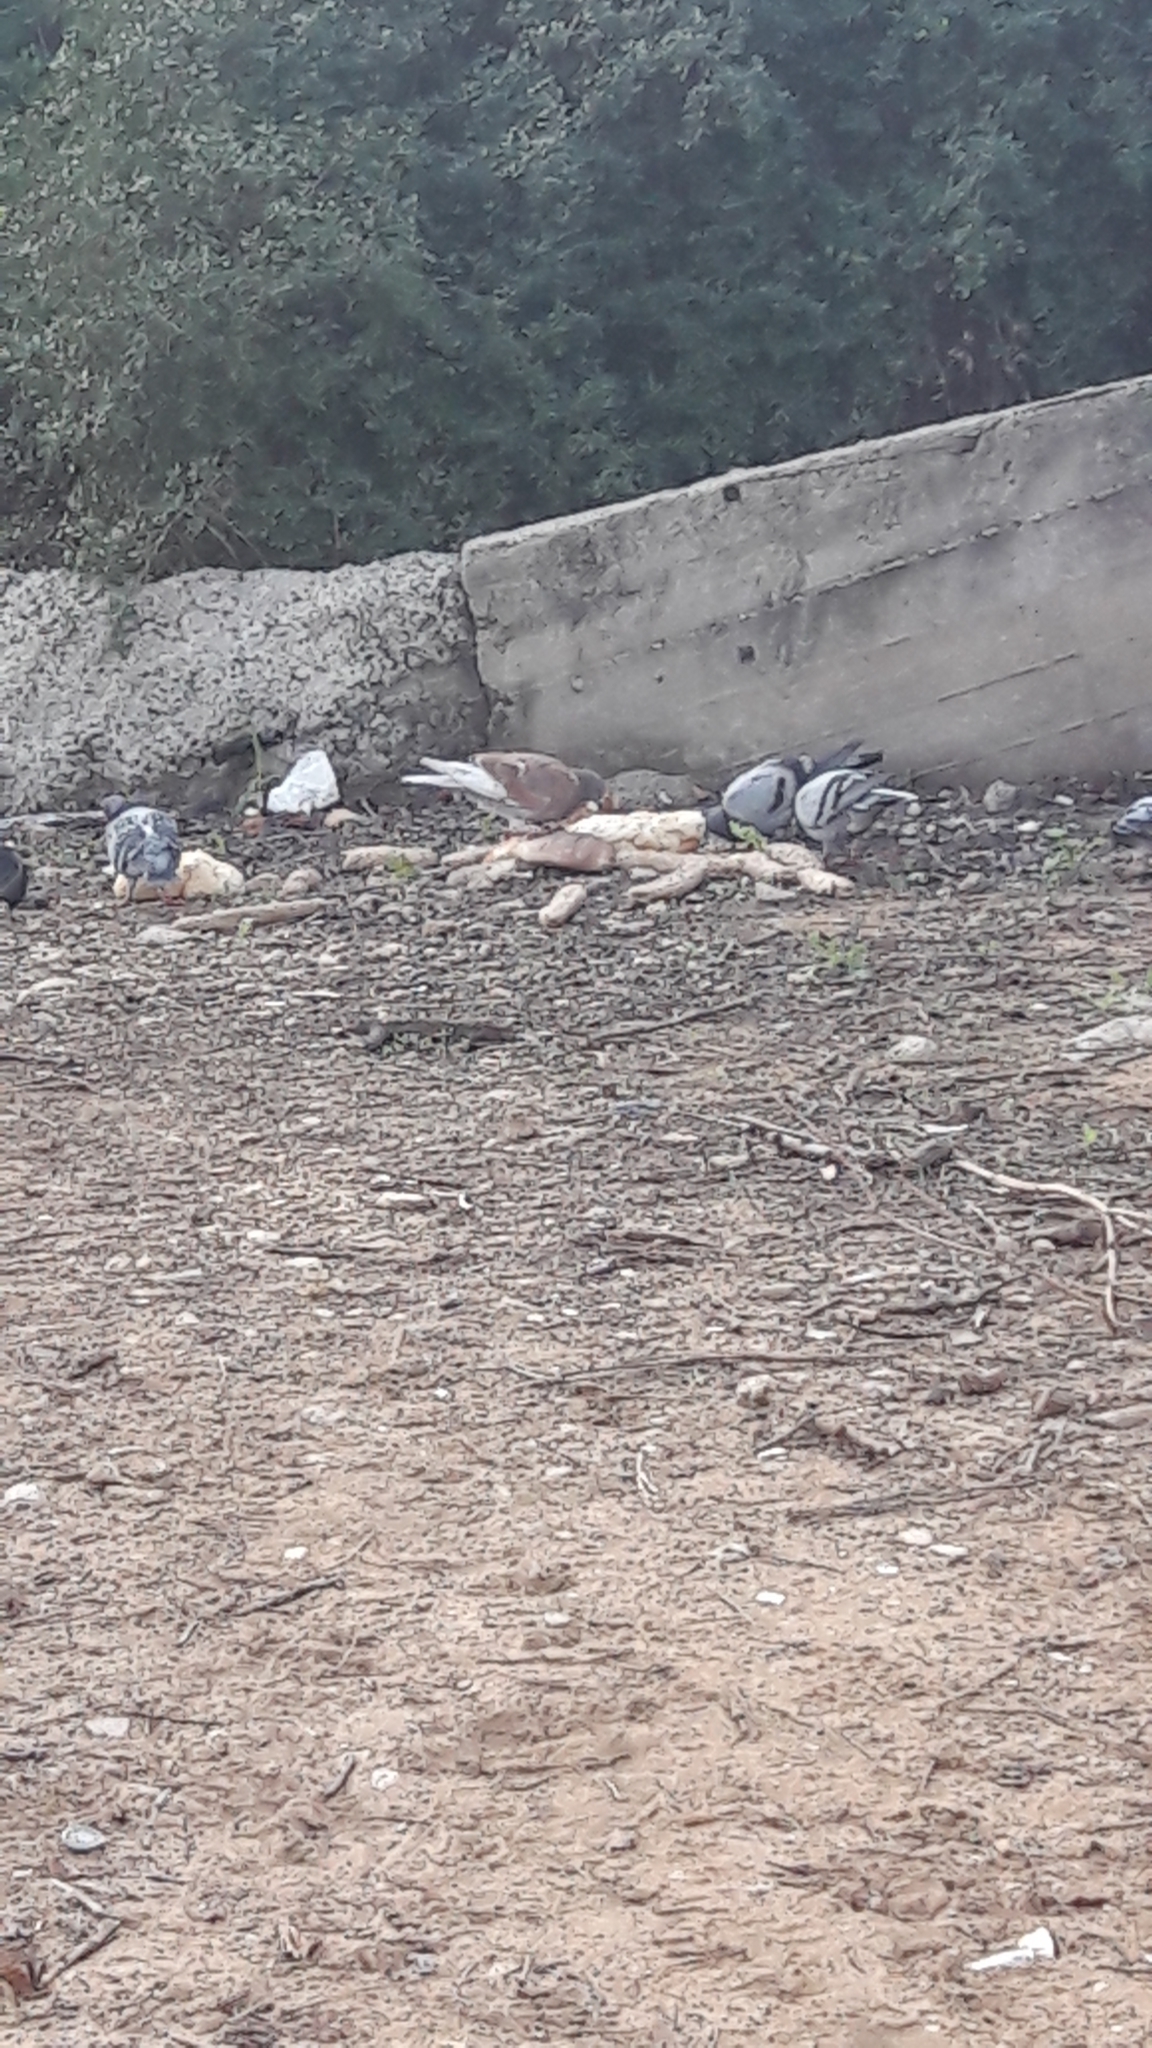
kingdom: Animalia
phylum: Chordata
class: Aves
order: Columbiformes
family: Columbidae
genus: Columba
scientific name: Columba livia
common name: Rock pigeon
